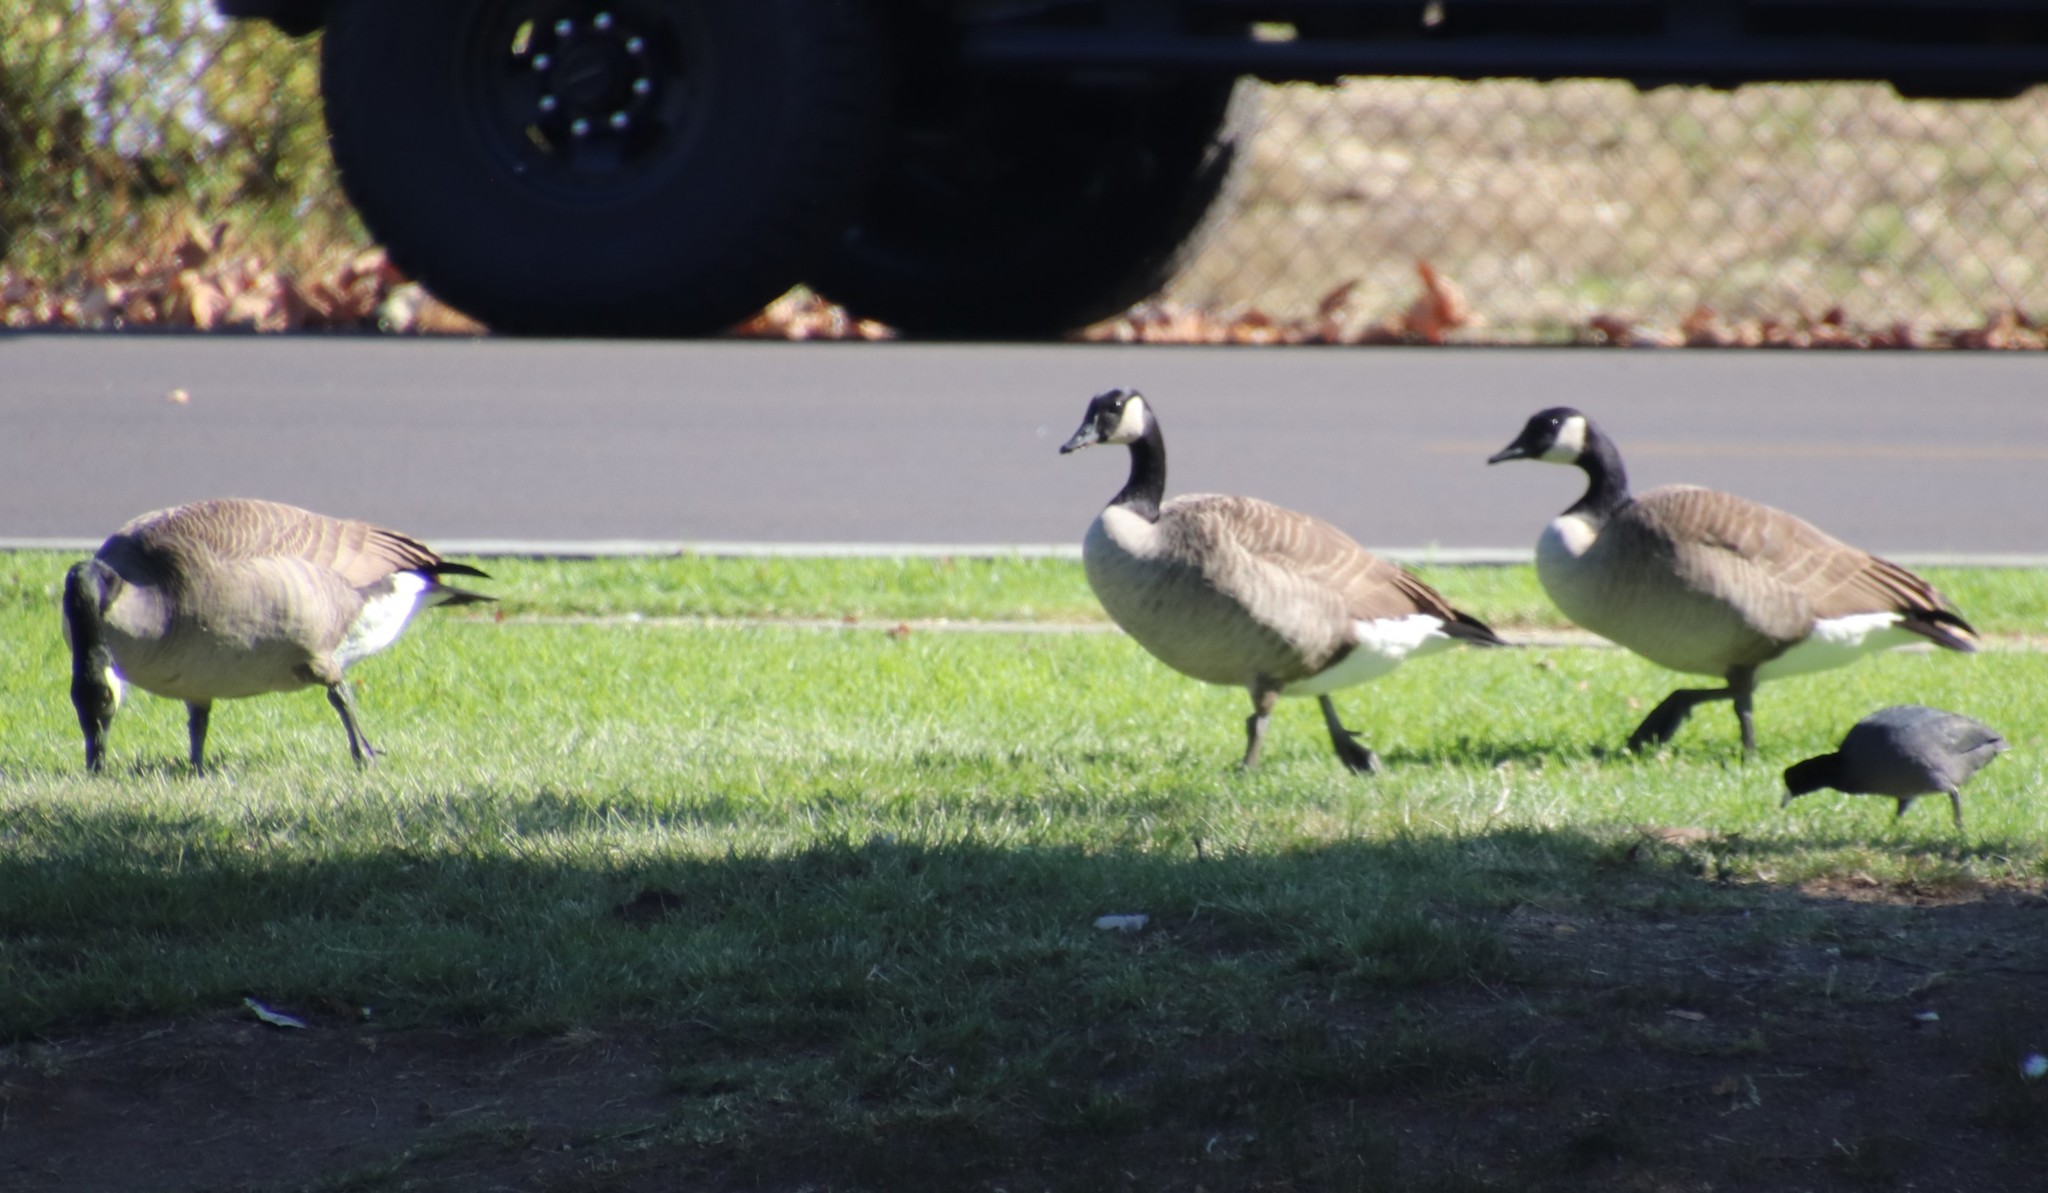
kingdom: Animalia
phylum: Chordata
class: Aves
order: Anseriformes
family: Anatidae
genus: Branta
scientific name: Branta canadensis
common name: Canada goose
